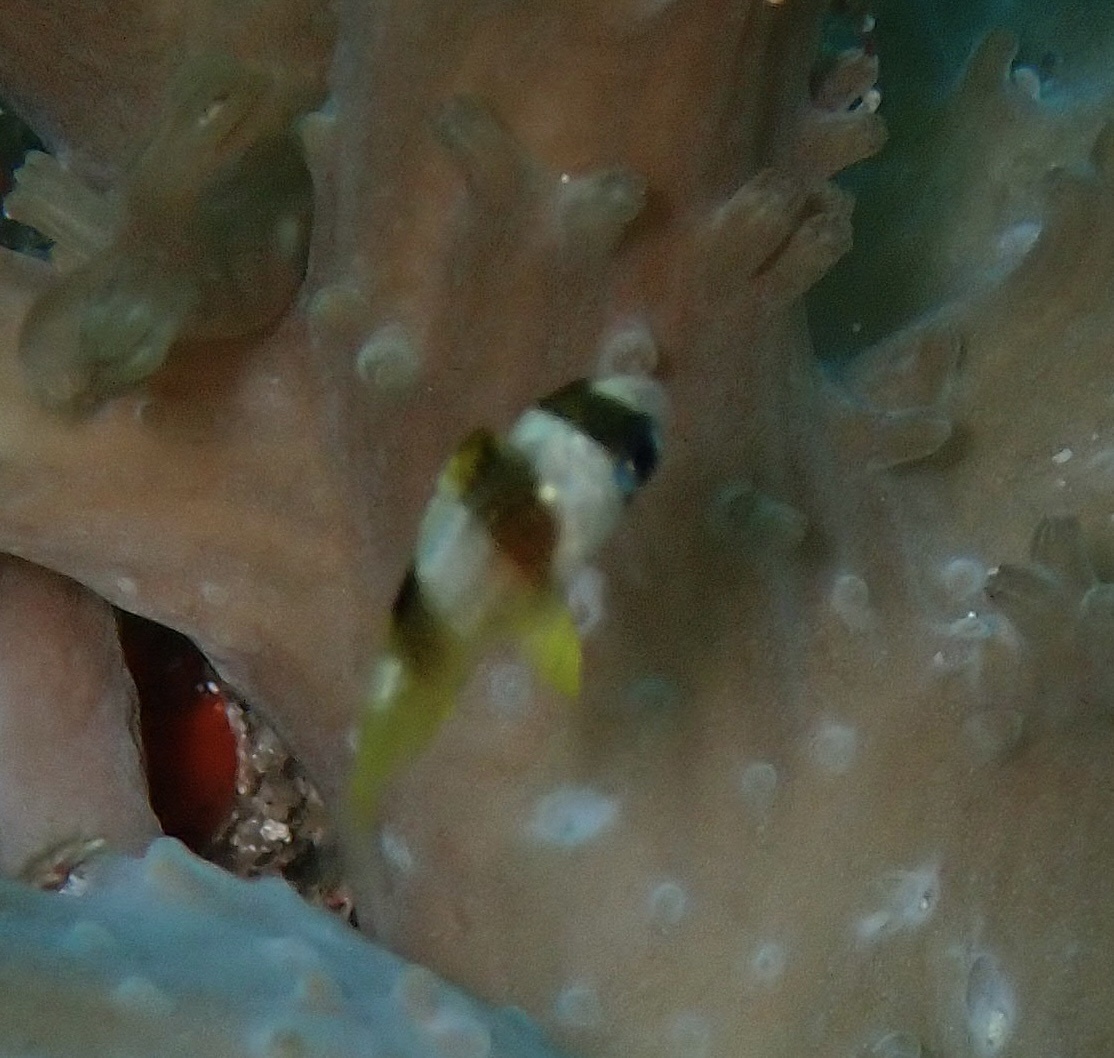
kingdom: Animalia
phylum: Chordata
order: Perciformes
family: Pomacentridae
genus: Amblypomacentrus
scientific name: Amblypomacentrus breviceps
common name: Black-banded demoiselle
